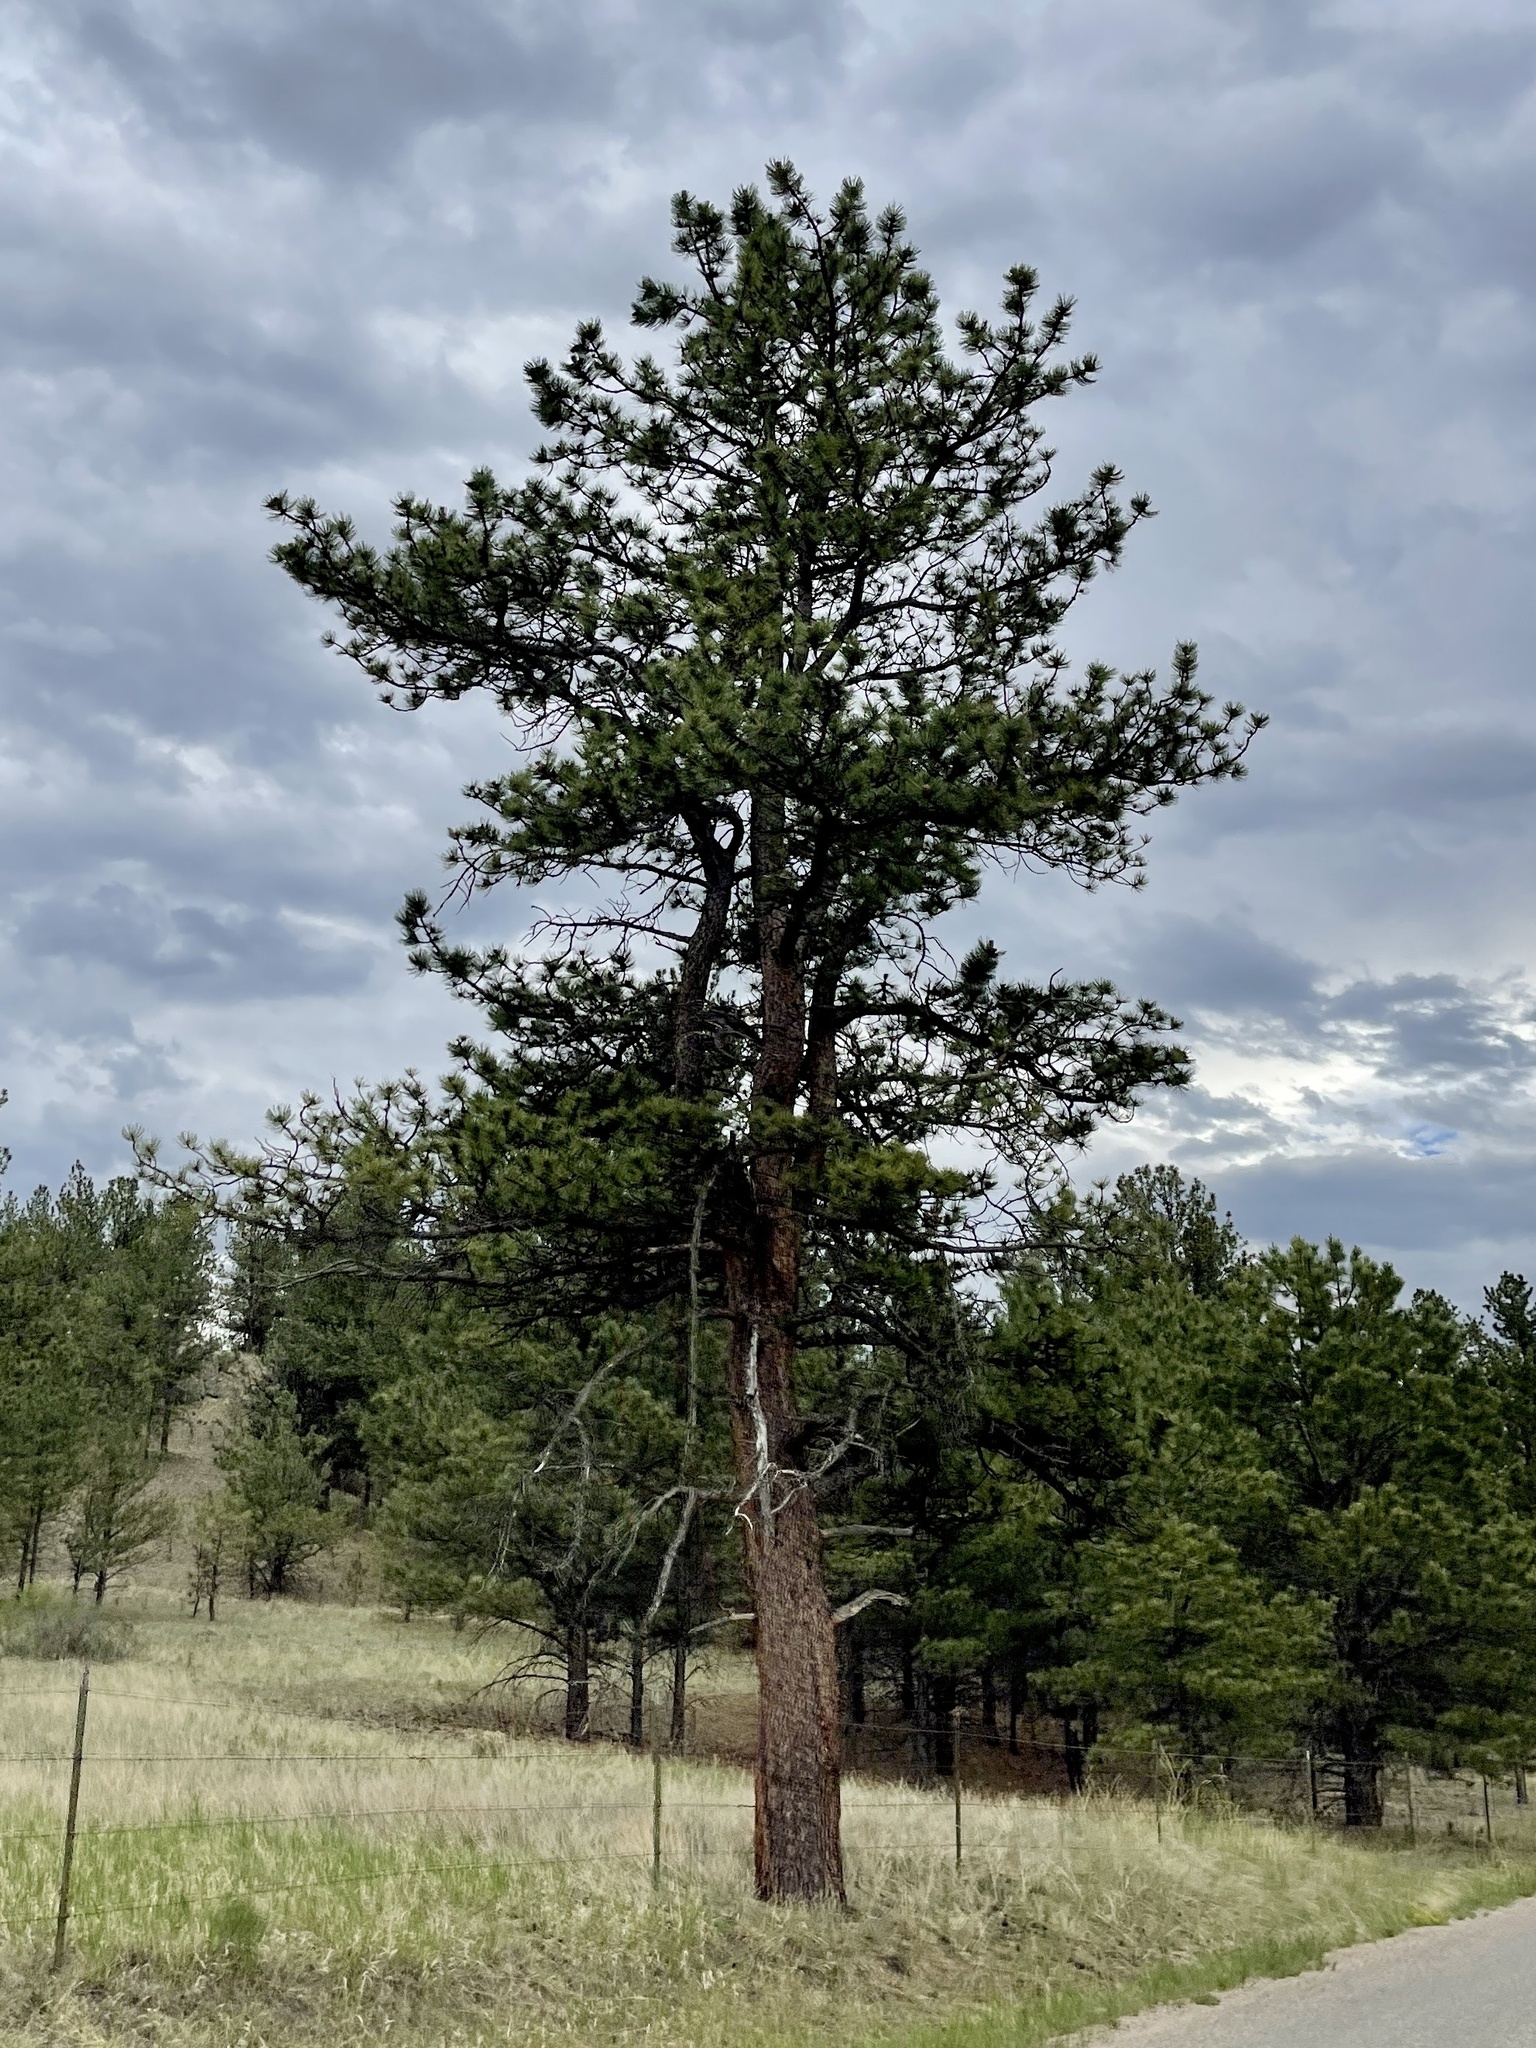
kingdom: Plantae
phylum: Tracheophyta
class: Pinopsida
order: Pinales
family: Pinaceae
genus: Pinus
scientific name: Pinus ponderosa
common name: Western yellow-pine
